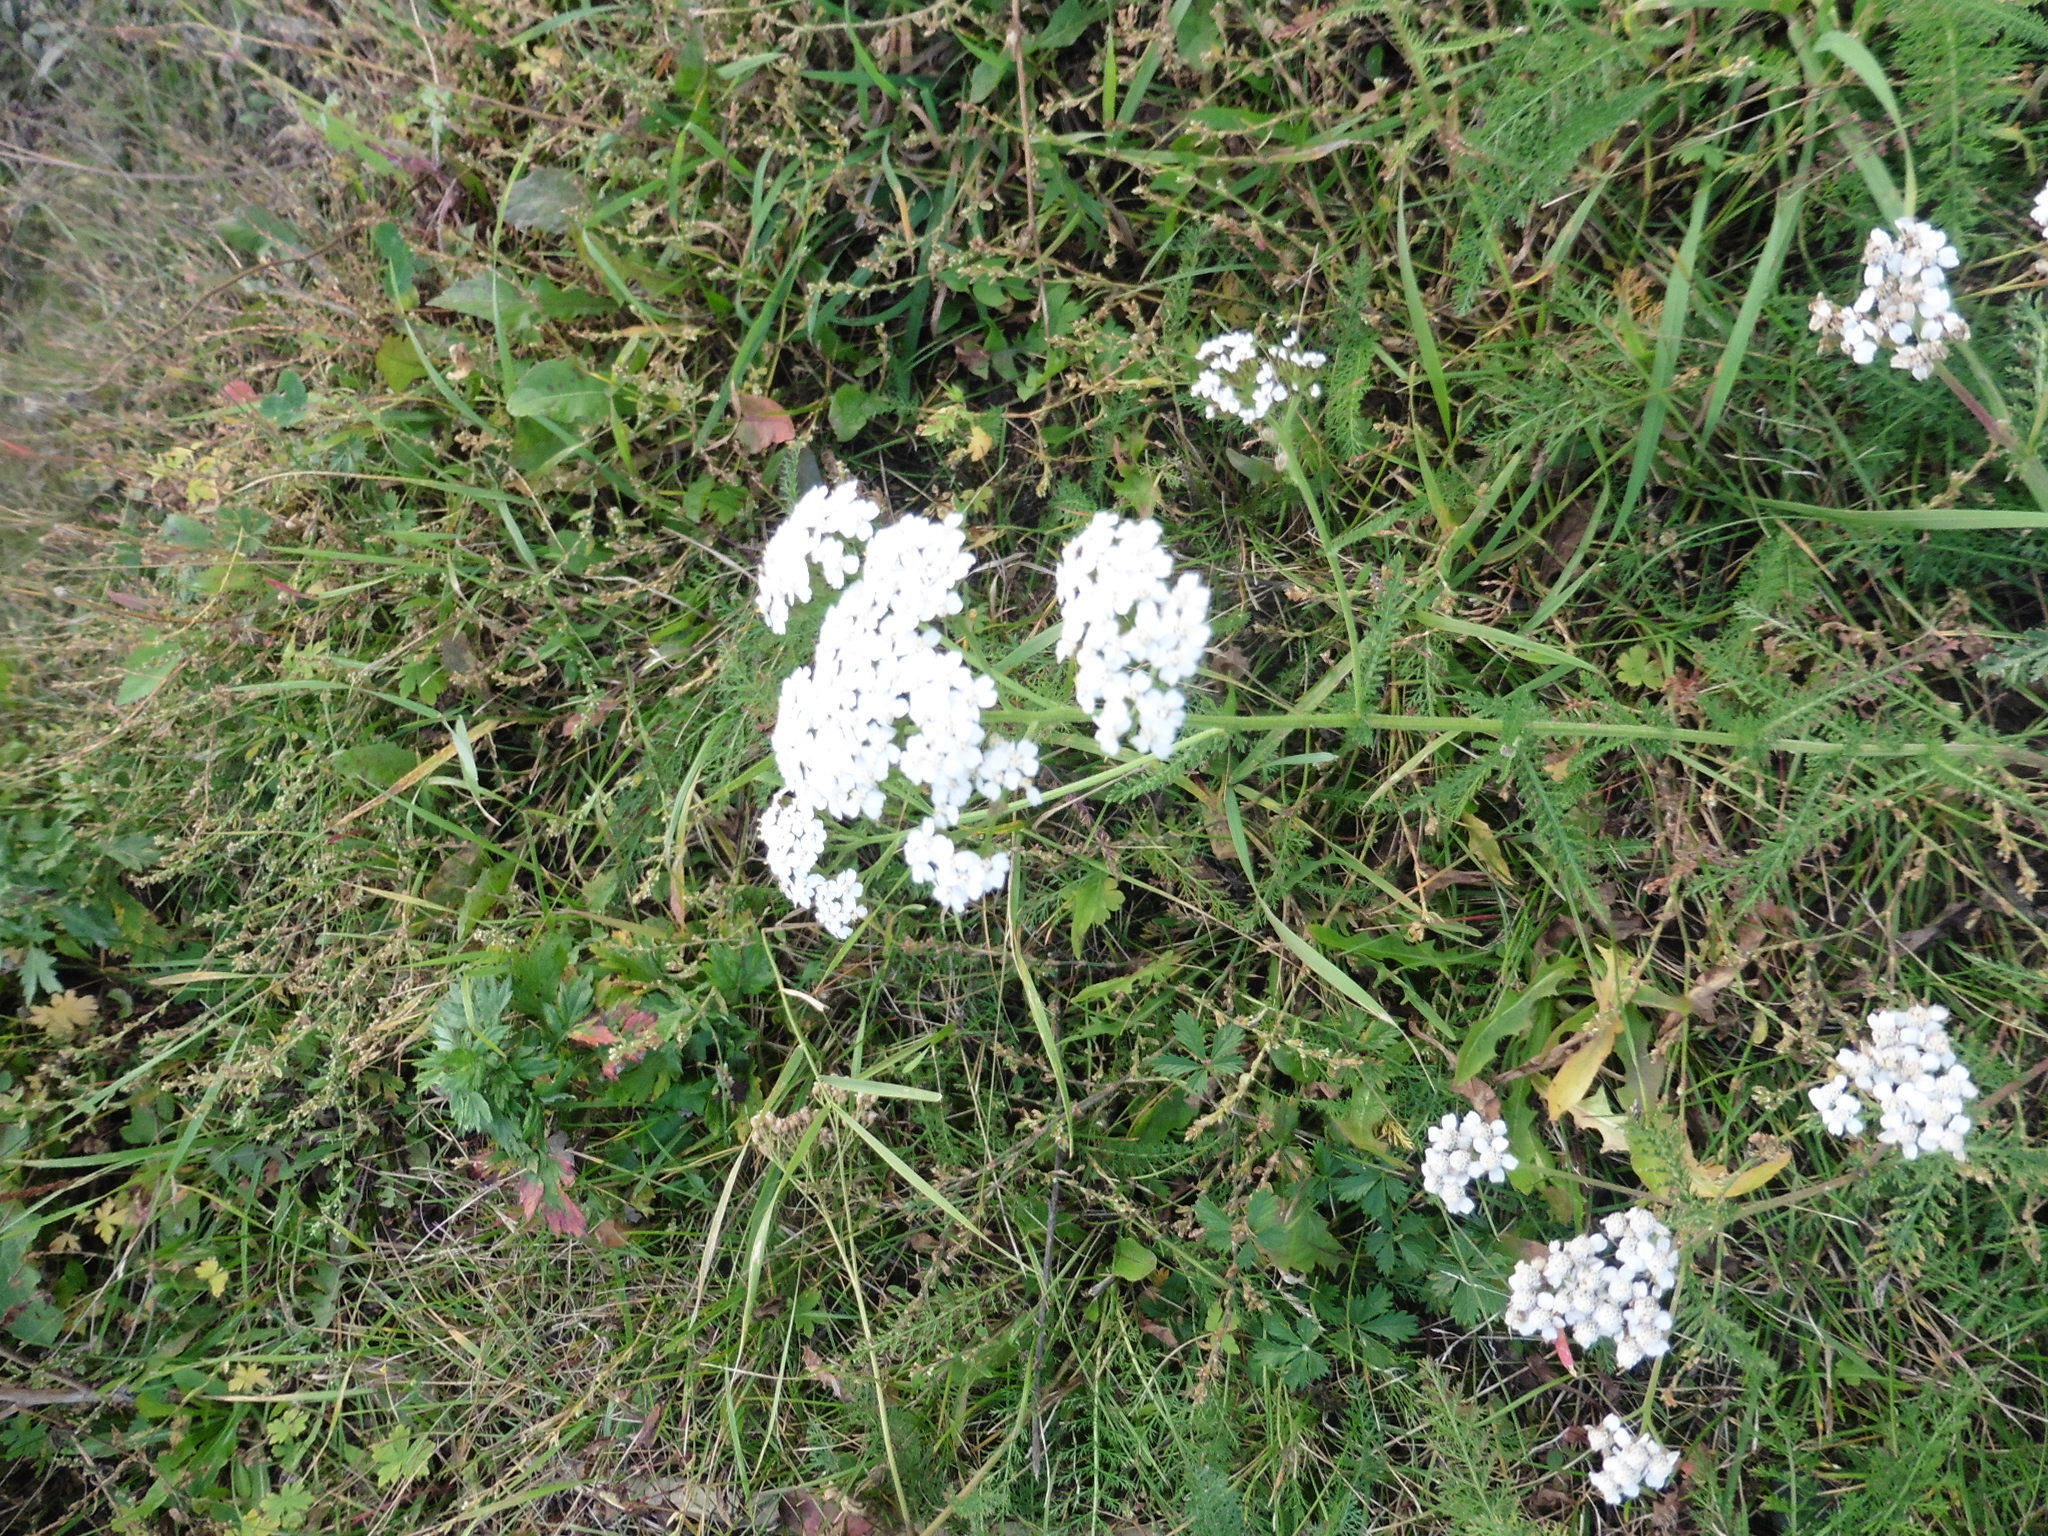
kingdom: Plantae
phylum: Tracheophyta
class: Magnoliopsida
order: Asterales
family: Asteraceae
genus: Achillea
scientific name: Achillea millefolium
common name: Yarrow
